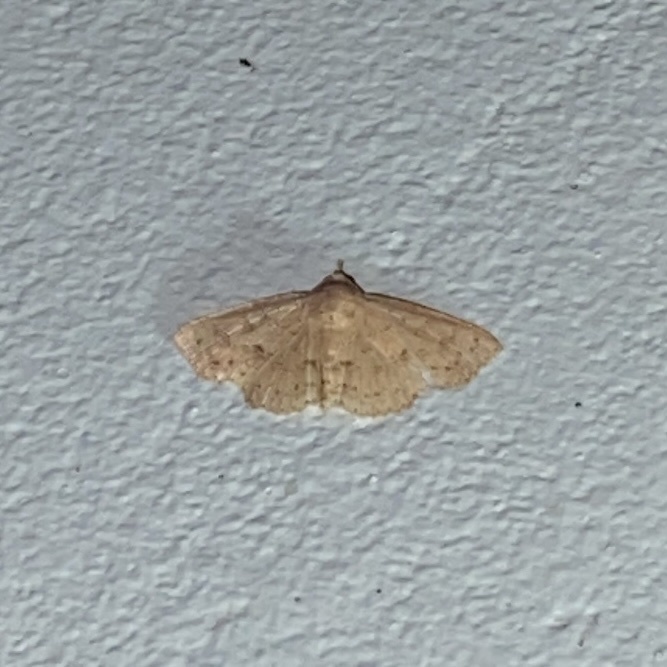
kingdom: Animalia
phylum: Arthropoda
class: Insecta
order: Lepidoptera
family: Erebidae
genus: Antiblemma
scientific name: Antiblemma melanoides
